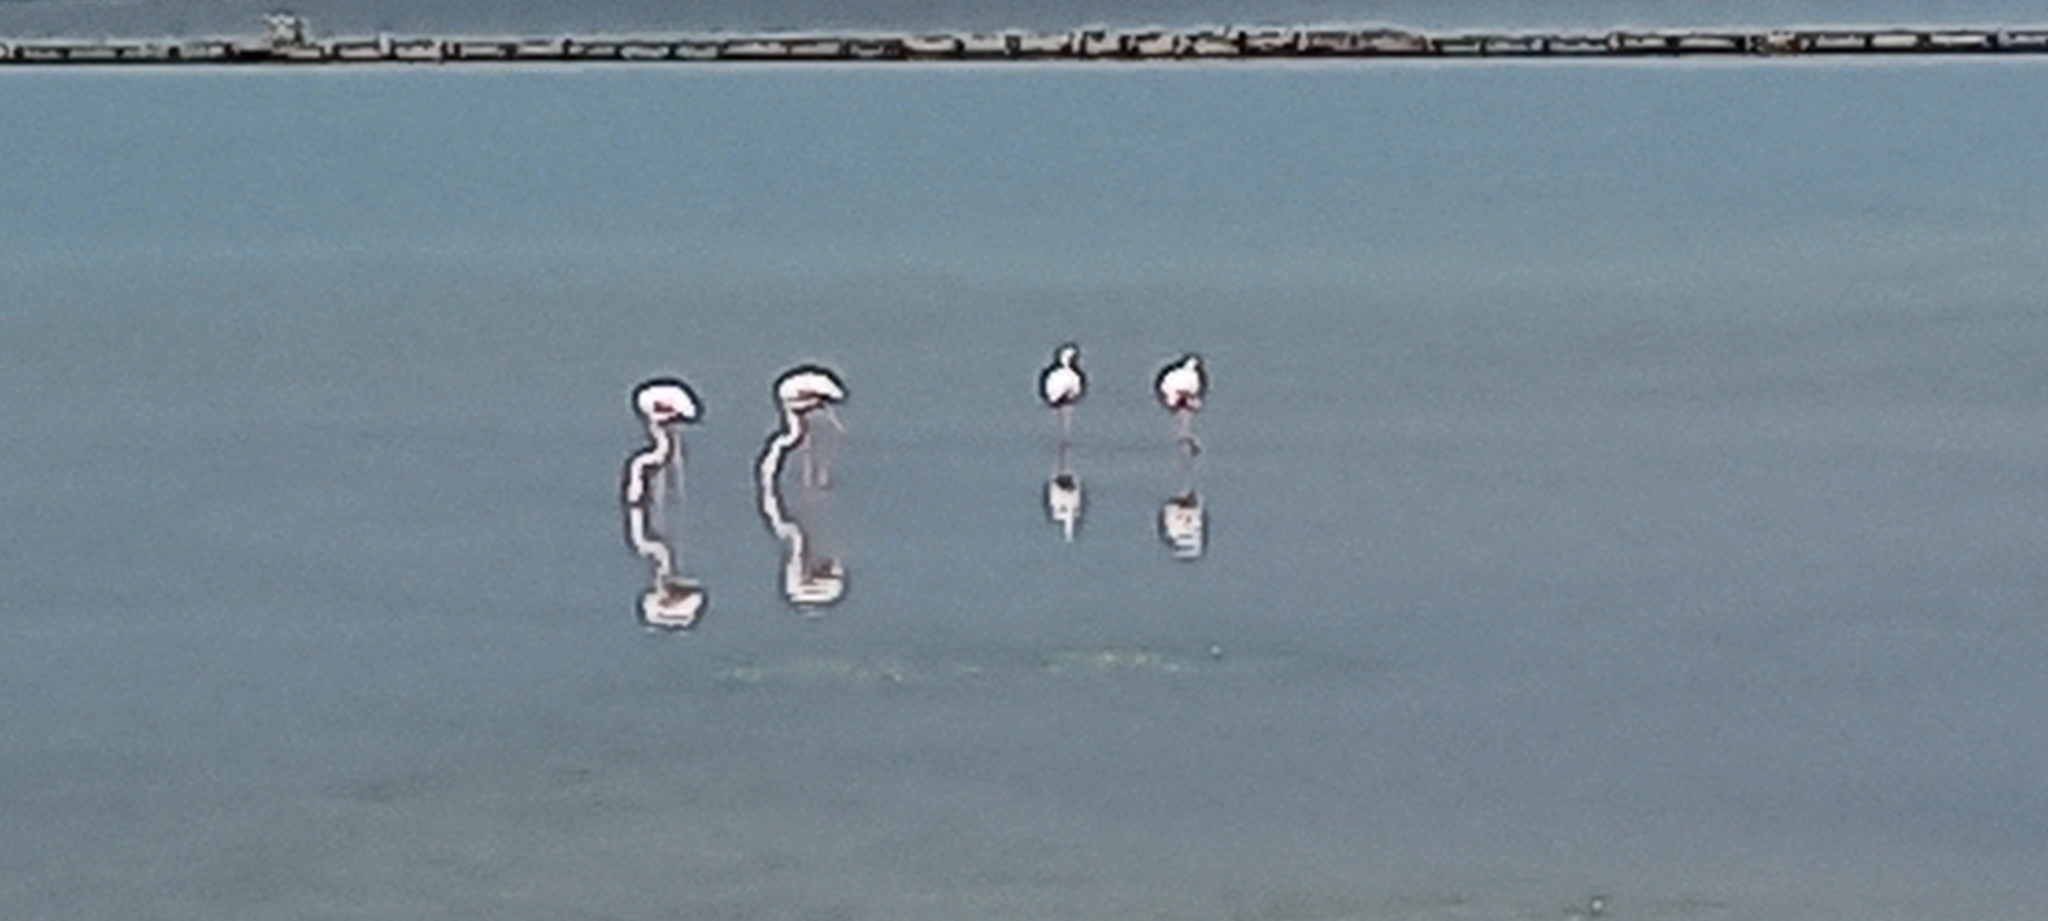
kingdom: Animalia
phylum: Chordata
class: Aves
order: Phoenicopteriformes
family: Phoenicopteridae
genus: Phoenicopterus
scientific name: Phoenicopterus roseus
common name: Greater flamingo
